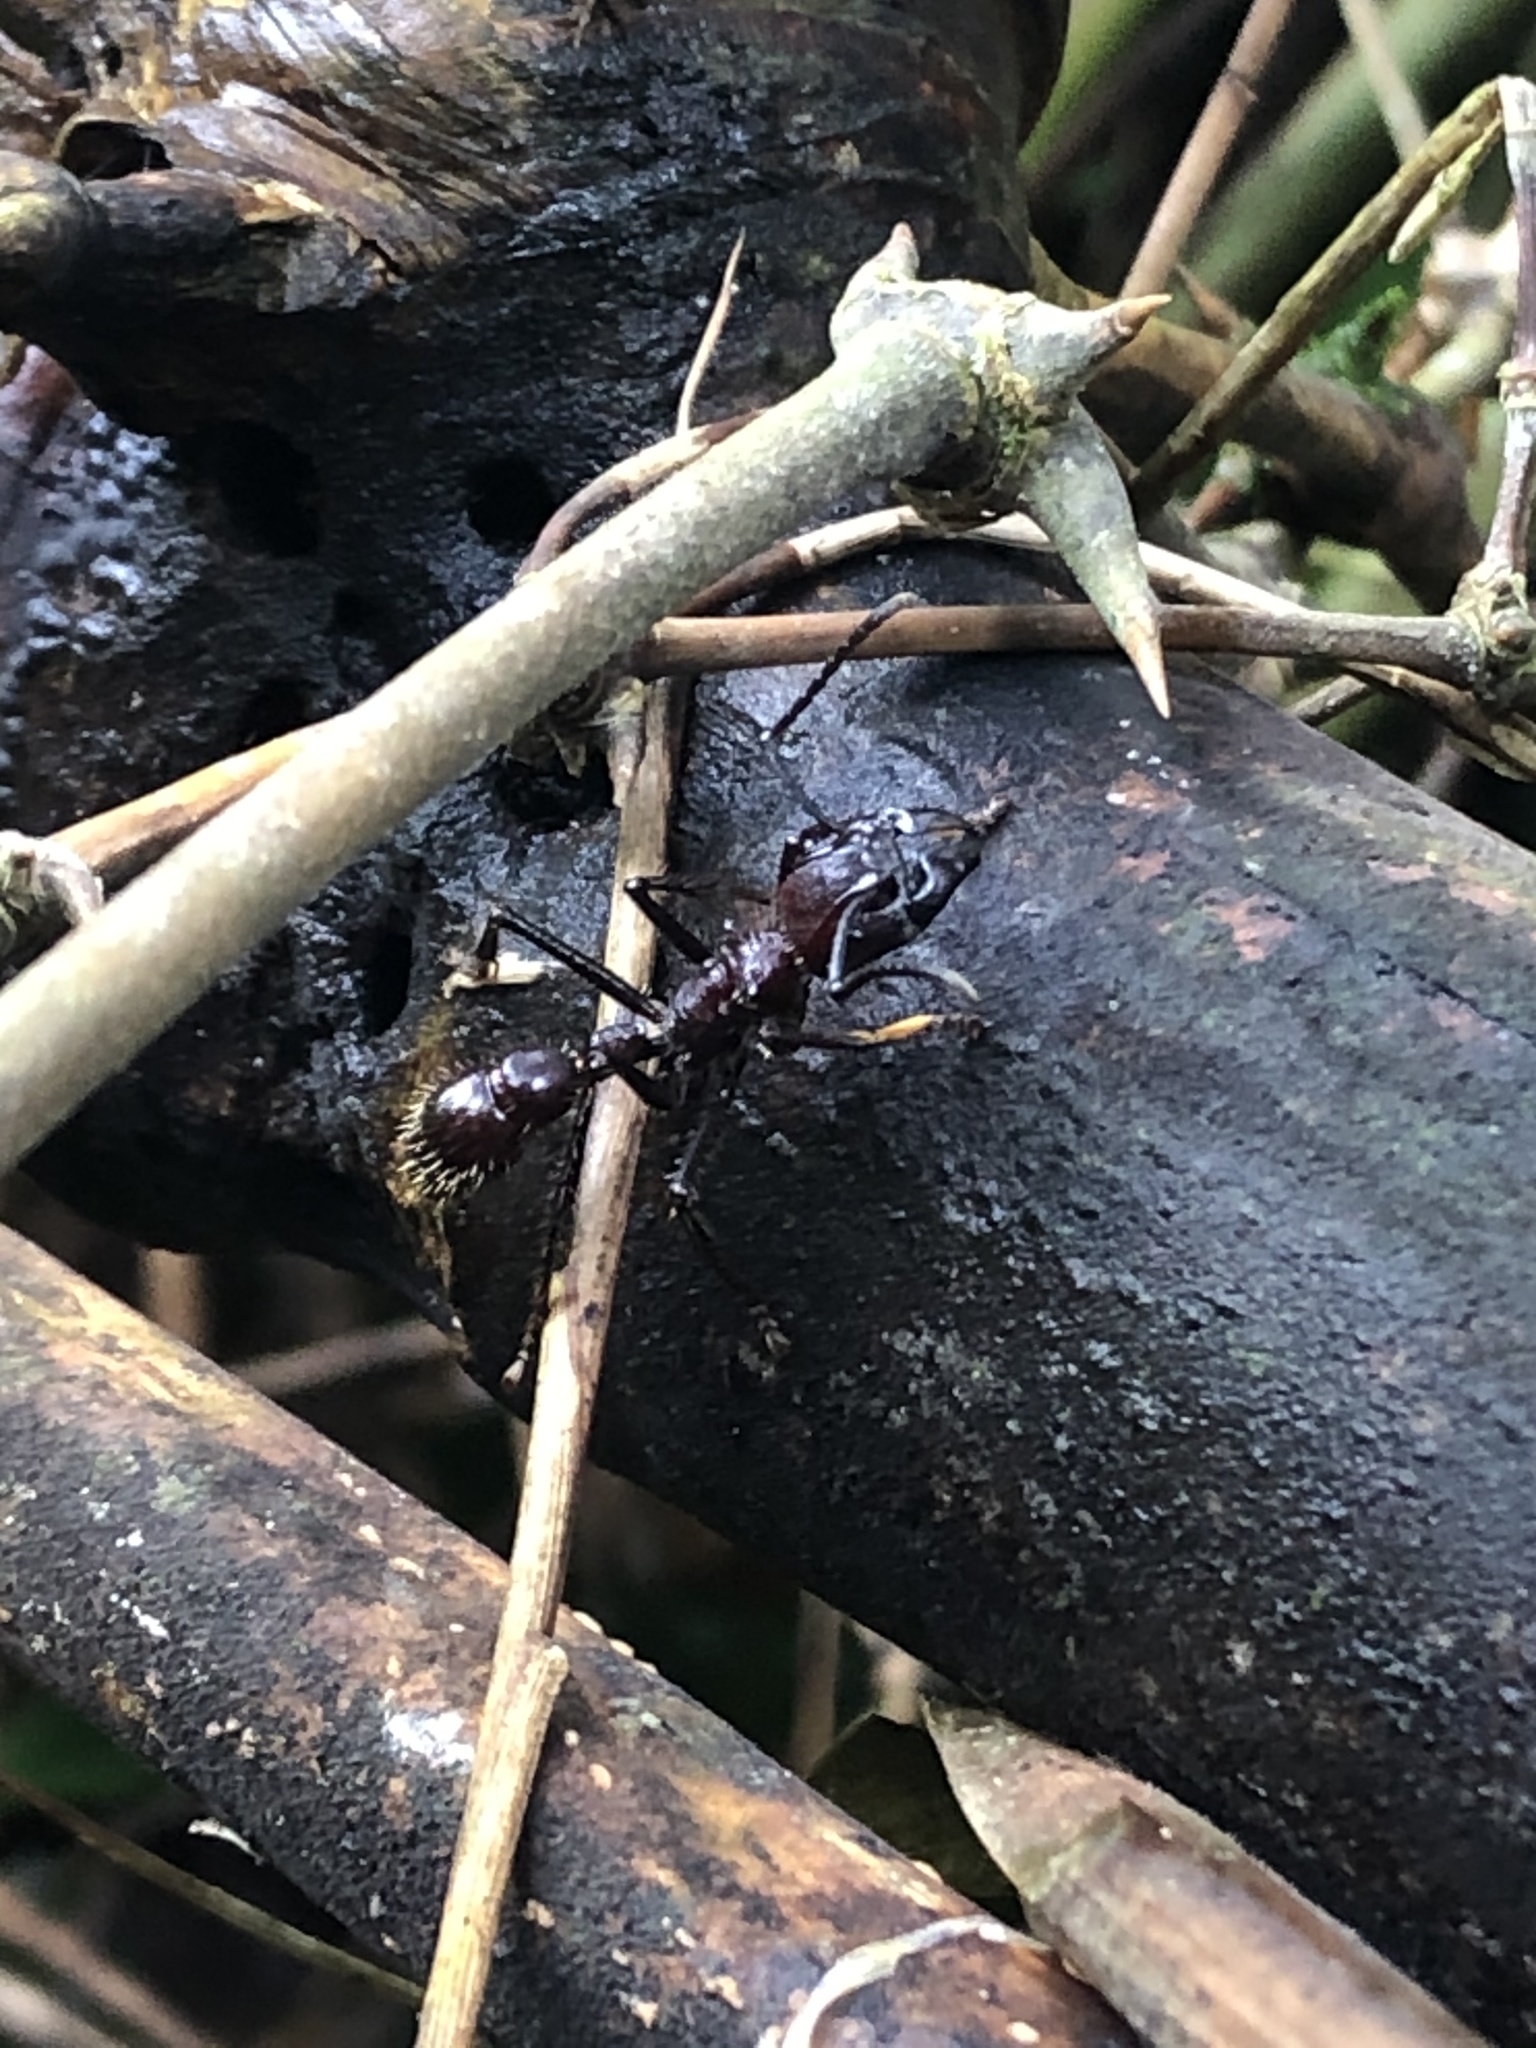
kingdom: Animalia
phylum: Arthropoda
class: Insecta
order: Hymenoptera
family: Formicidae
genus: Paraponera
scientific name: Paraponera clavata
